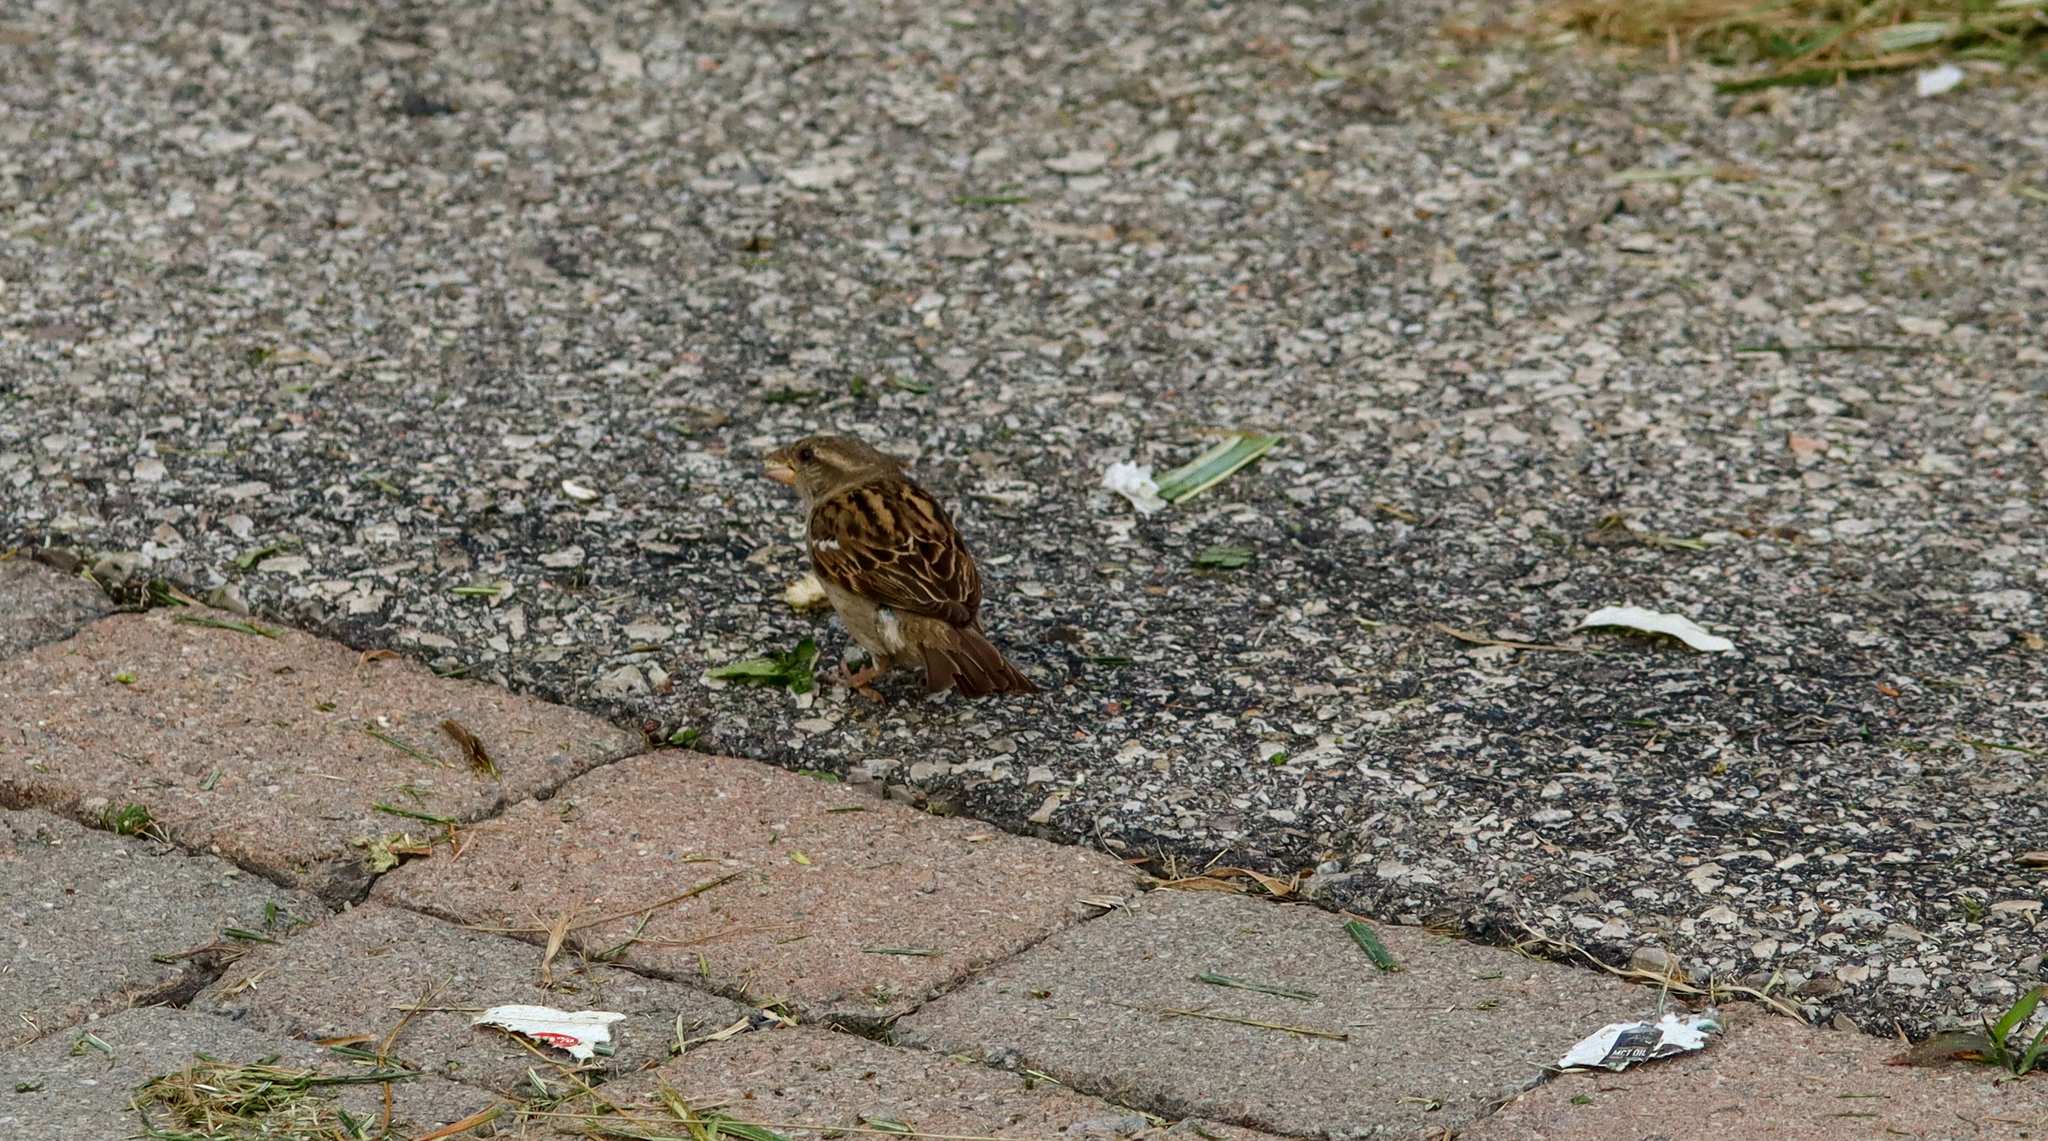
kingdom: Animalia
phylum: Chordata
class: Aves
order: Passeriformes
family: Passeridae
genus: Passer
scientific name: Passer domesticus
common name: House sparrow
